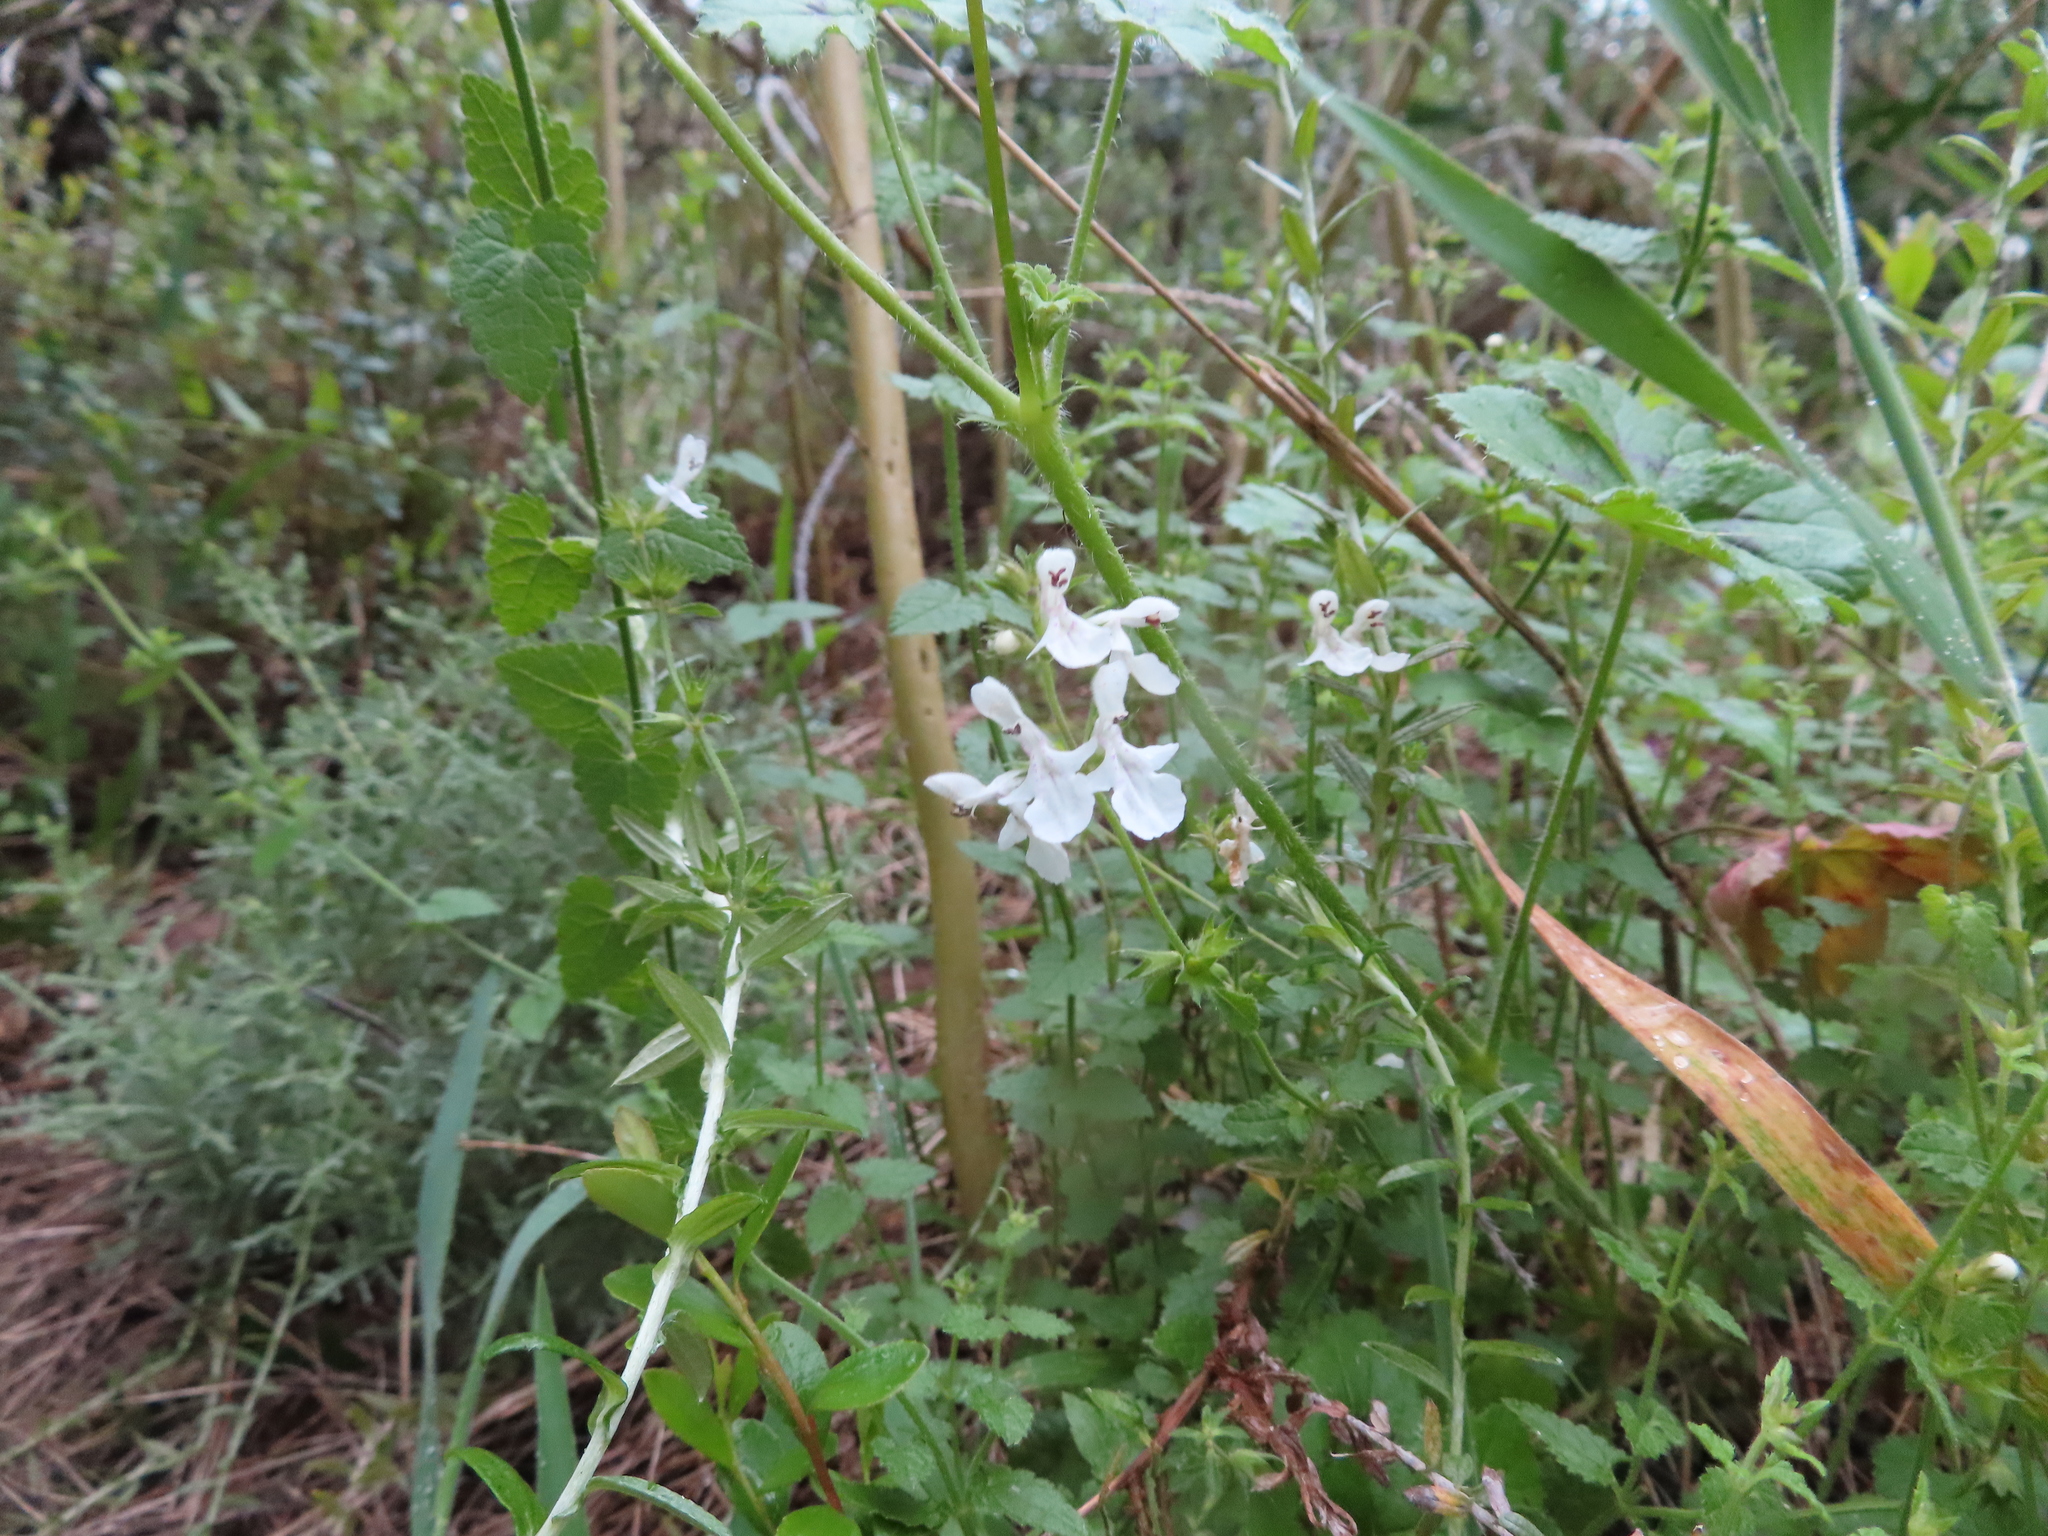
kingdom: Plantae
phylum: Tracheophyta
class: Magnoliopsida
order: Lamiales
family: Lamiaceae
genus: Stachys
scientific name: Stachys aethiopica
